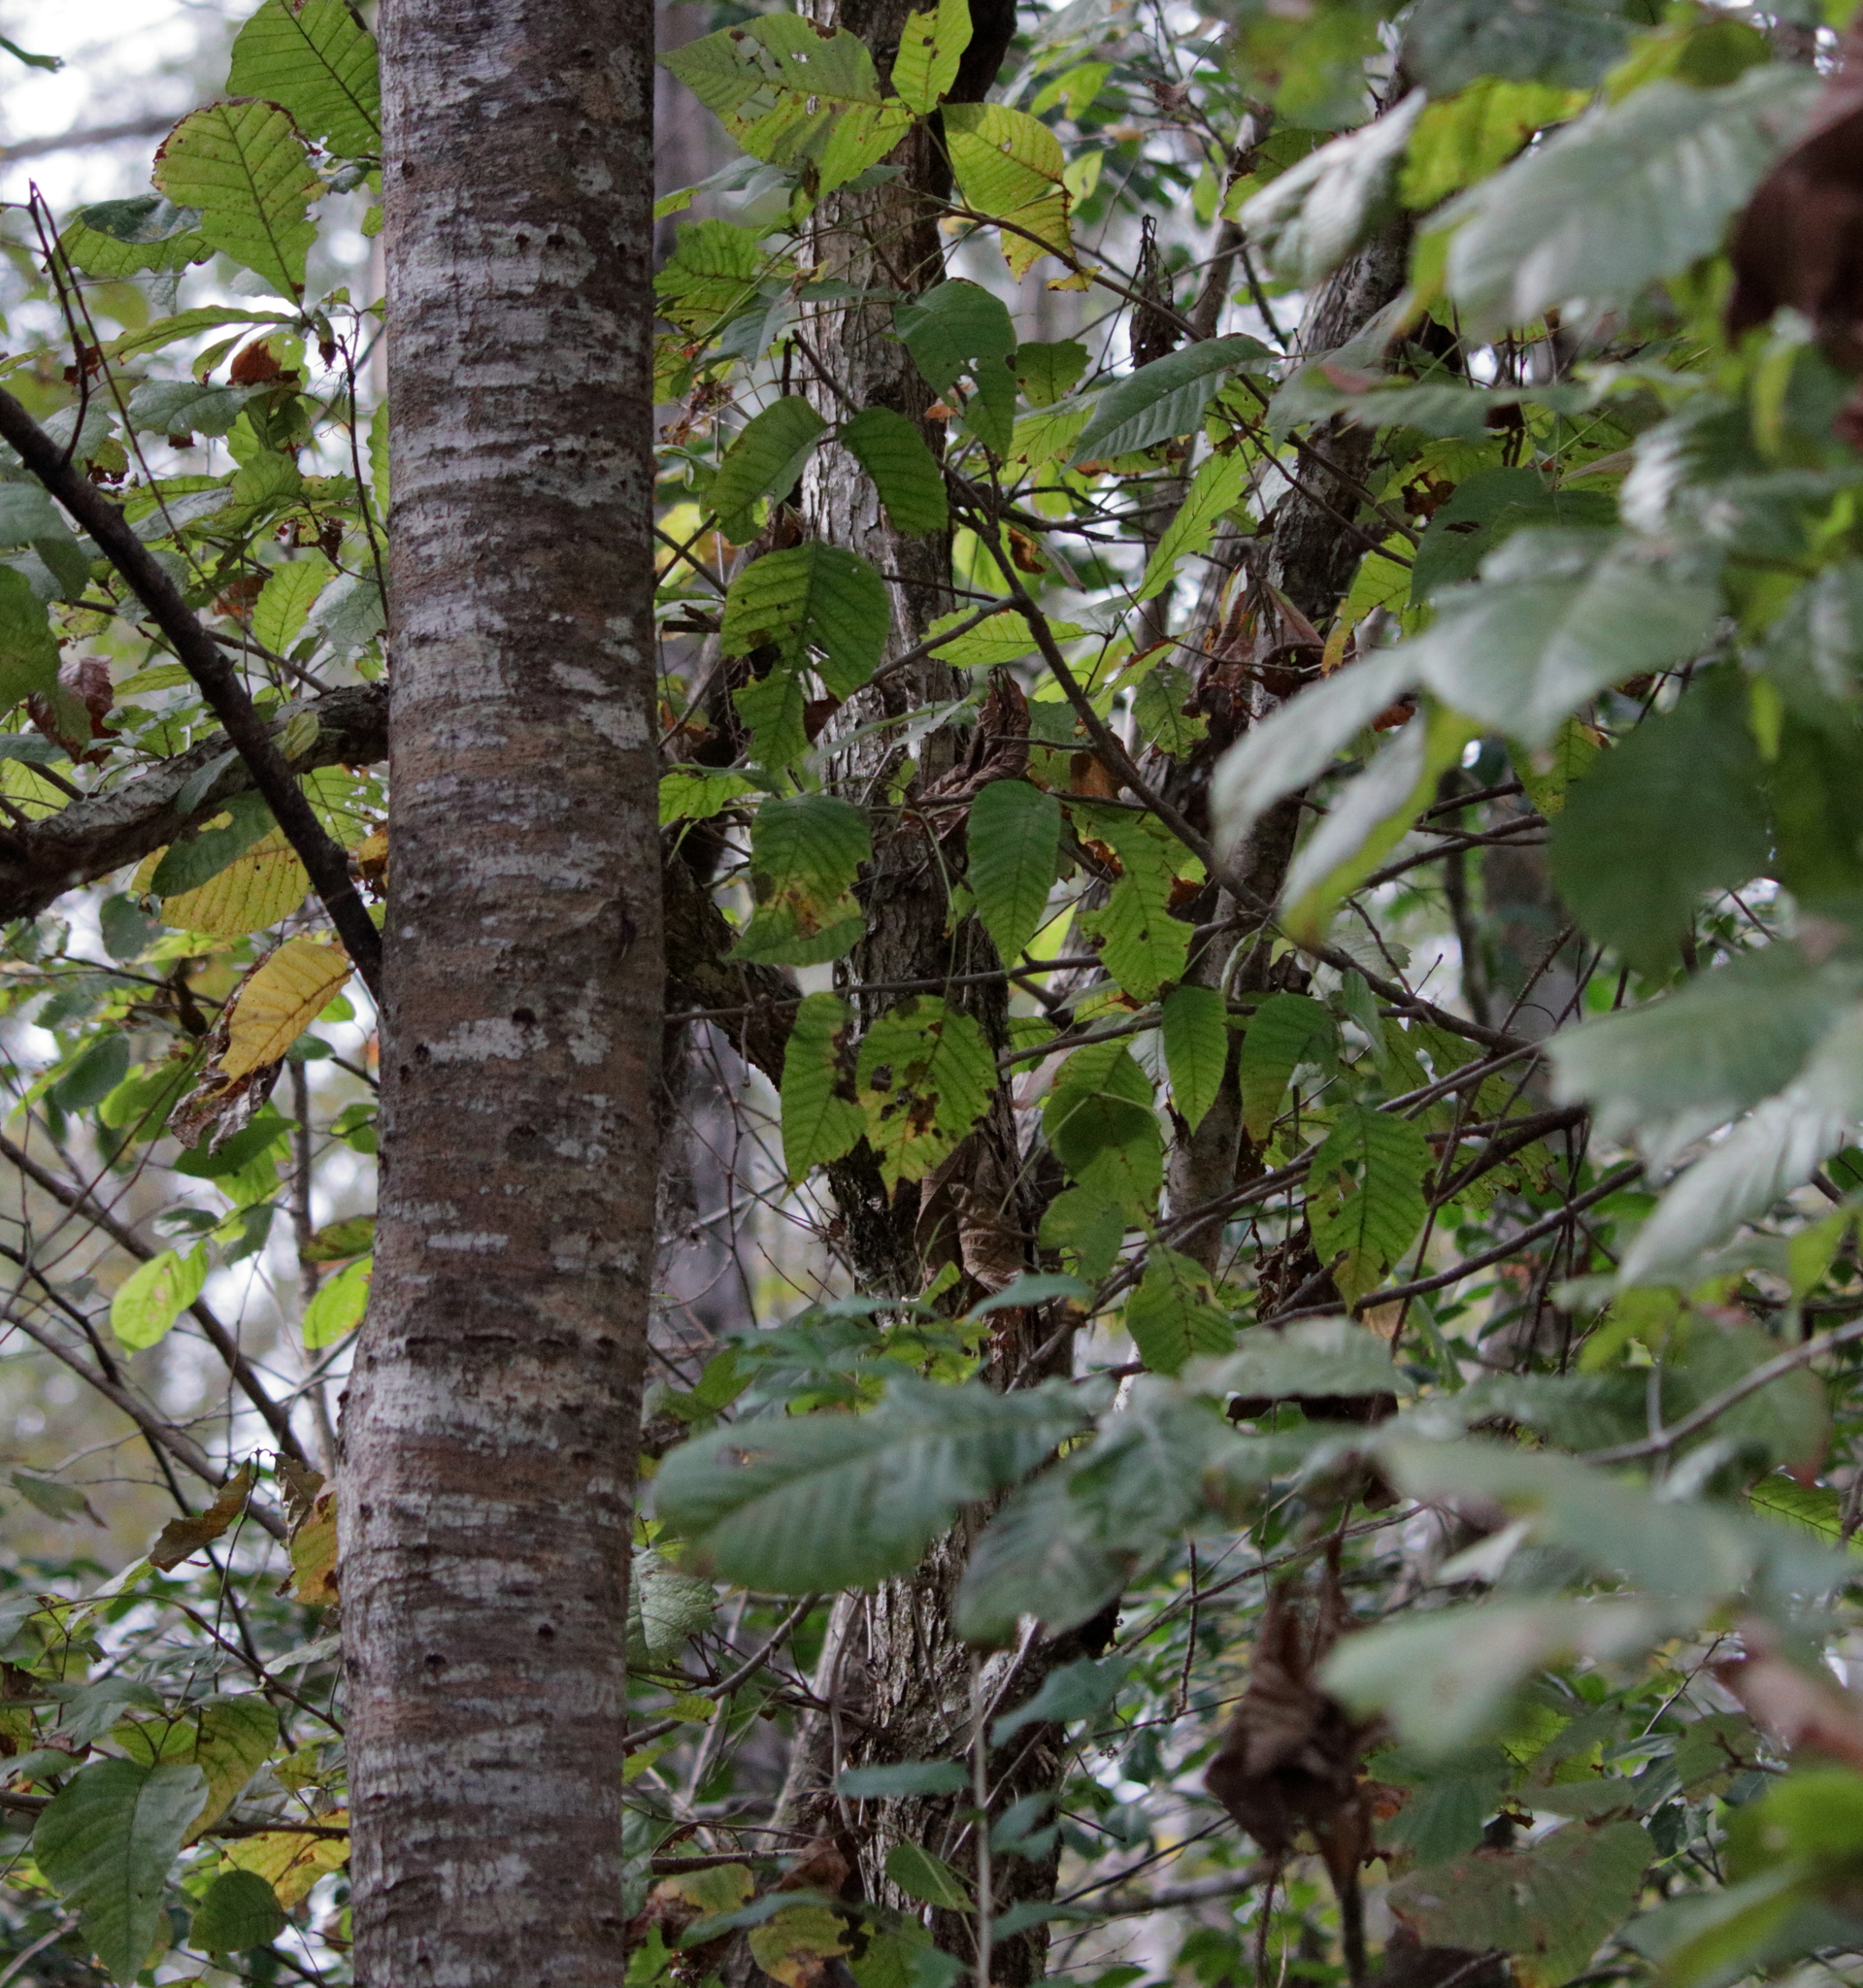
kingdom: Plantae
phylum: Tracheophyta
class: Magnoliopsida
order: Fagales
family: Fagaceae
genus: Quercus
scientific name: Quercus michauxii
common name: Swamp chestnut oak
